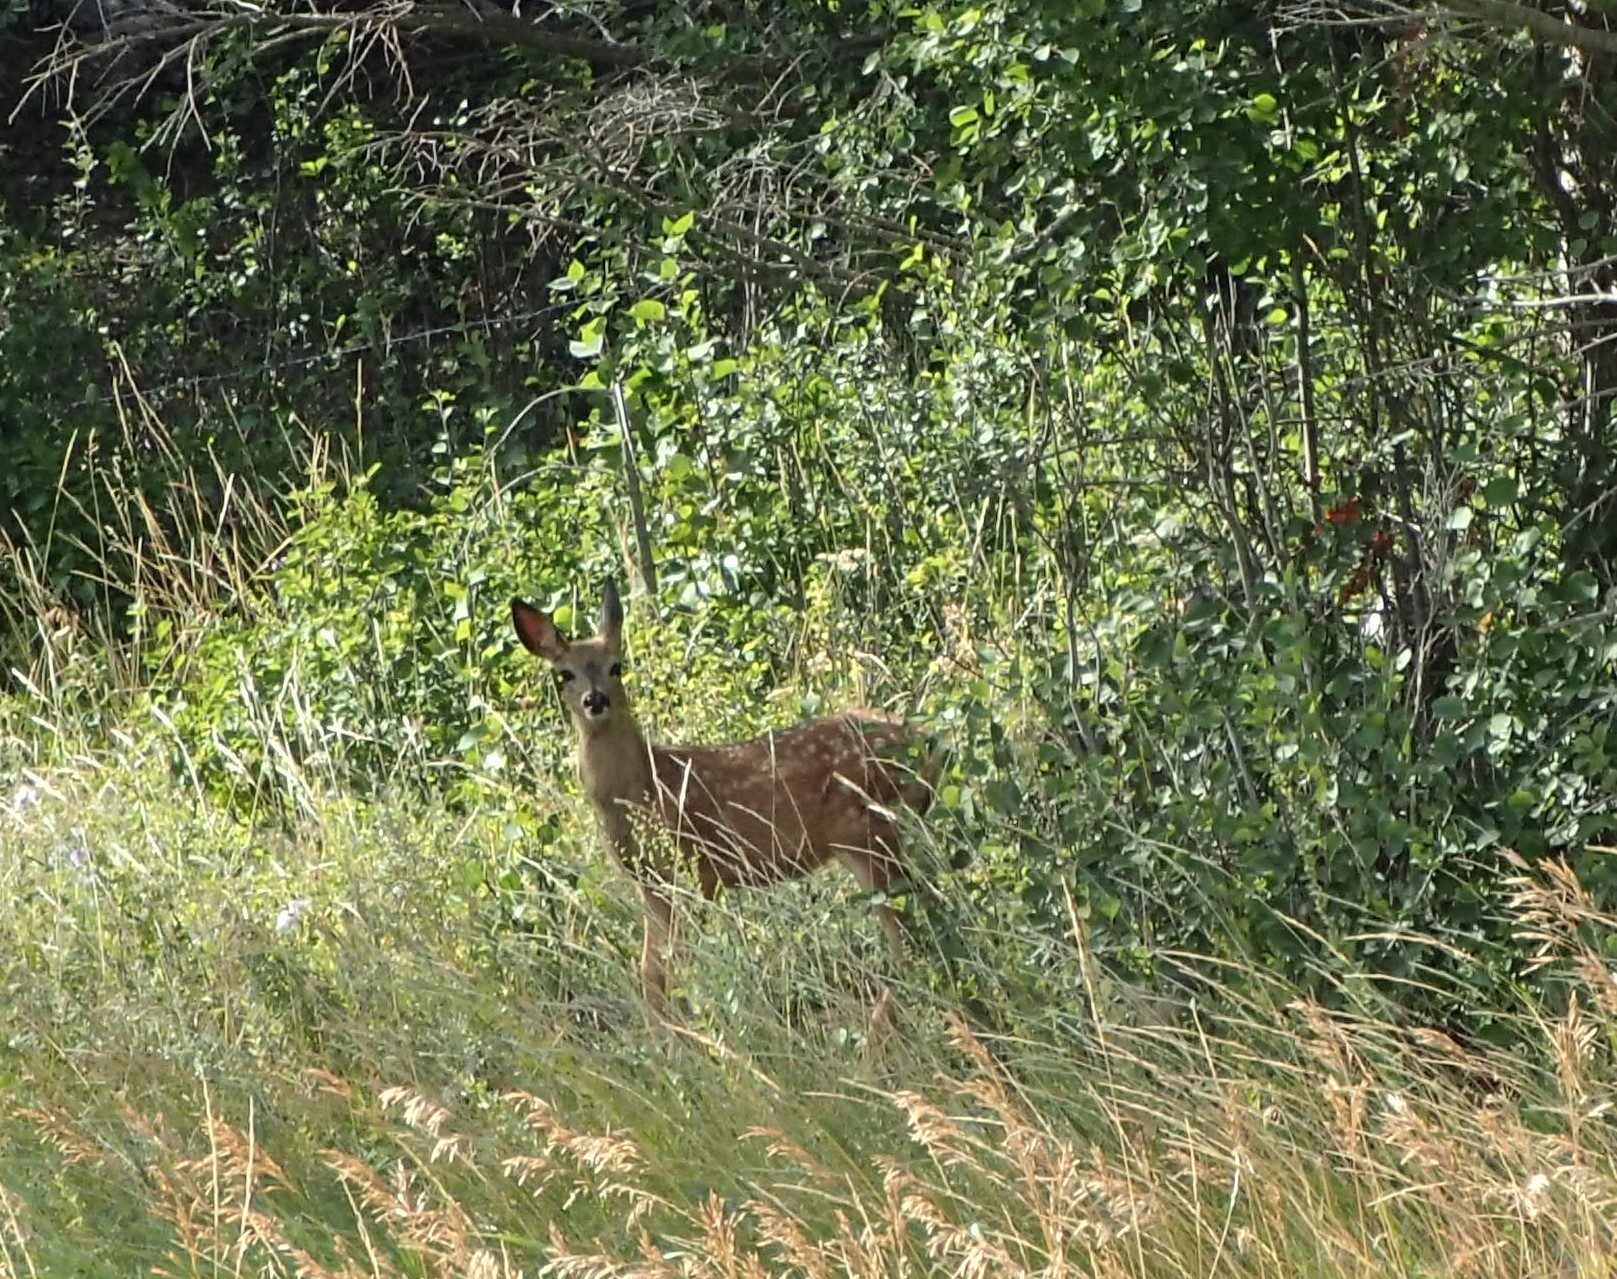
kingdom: Animalia
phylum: Chordata
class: Mammalia
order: Artiodactyla
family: Cervidae
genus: Odocoileus
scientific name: Odocoileus virginianus
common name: White-tailed deer
